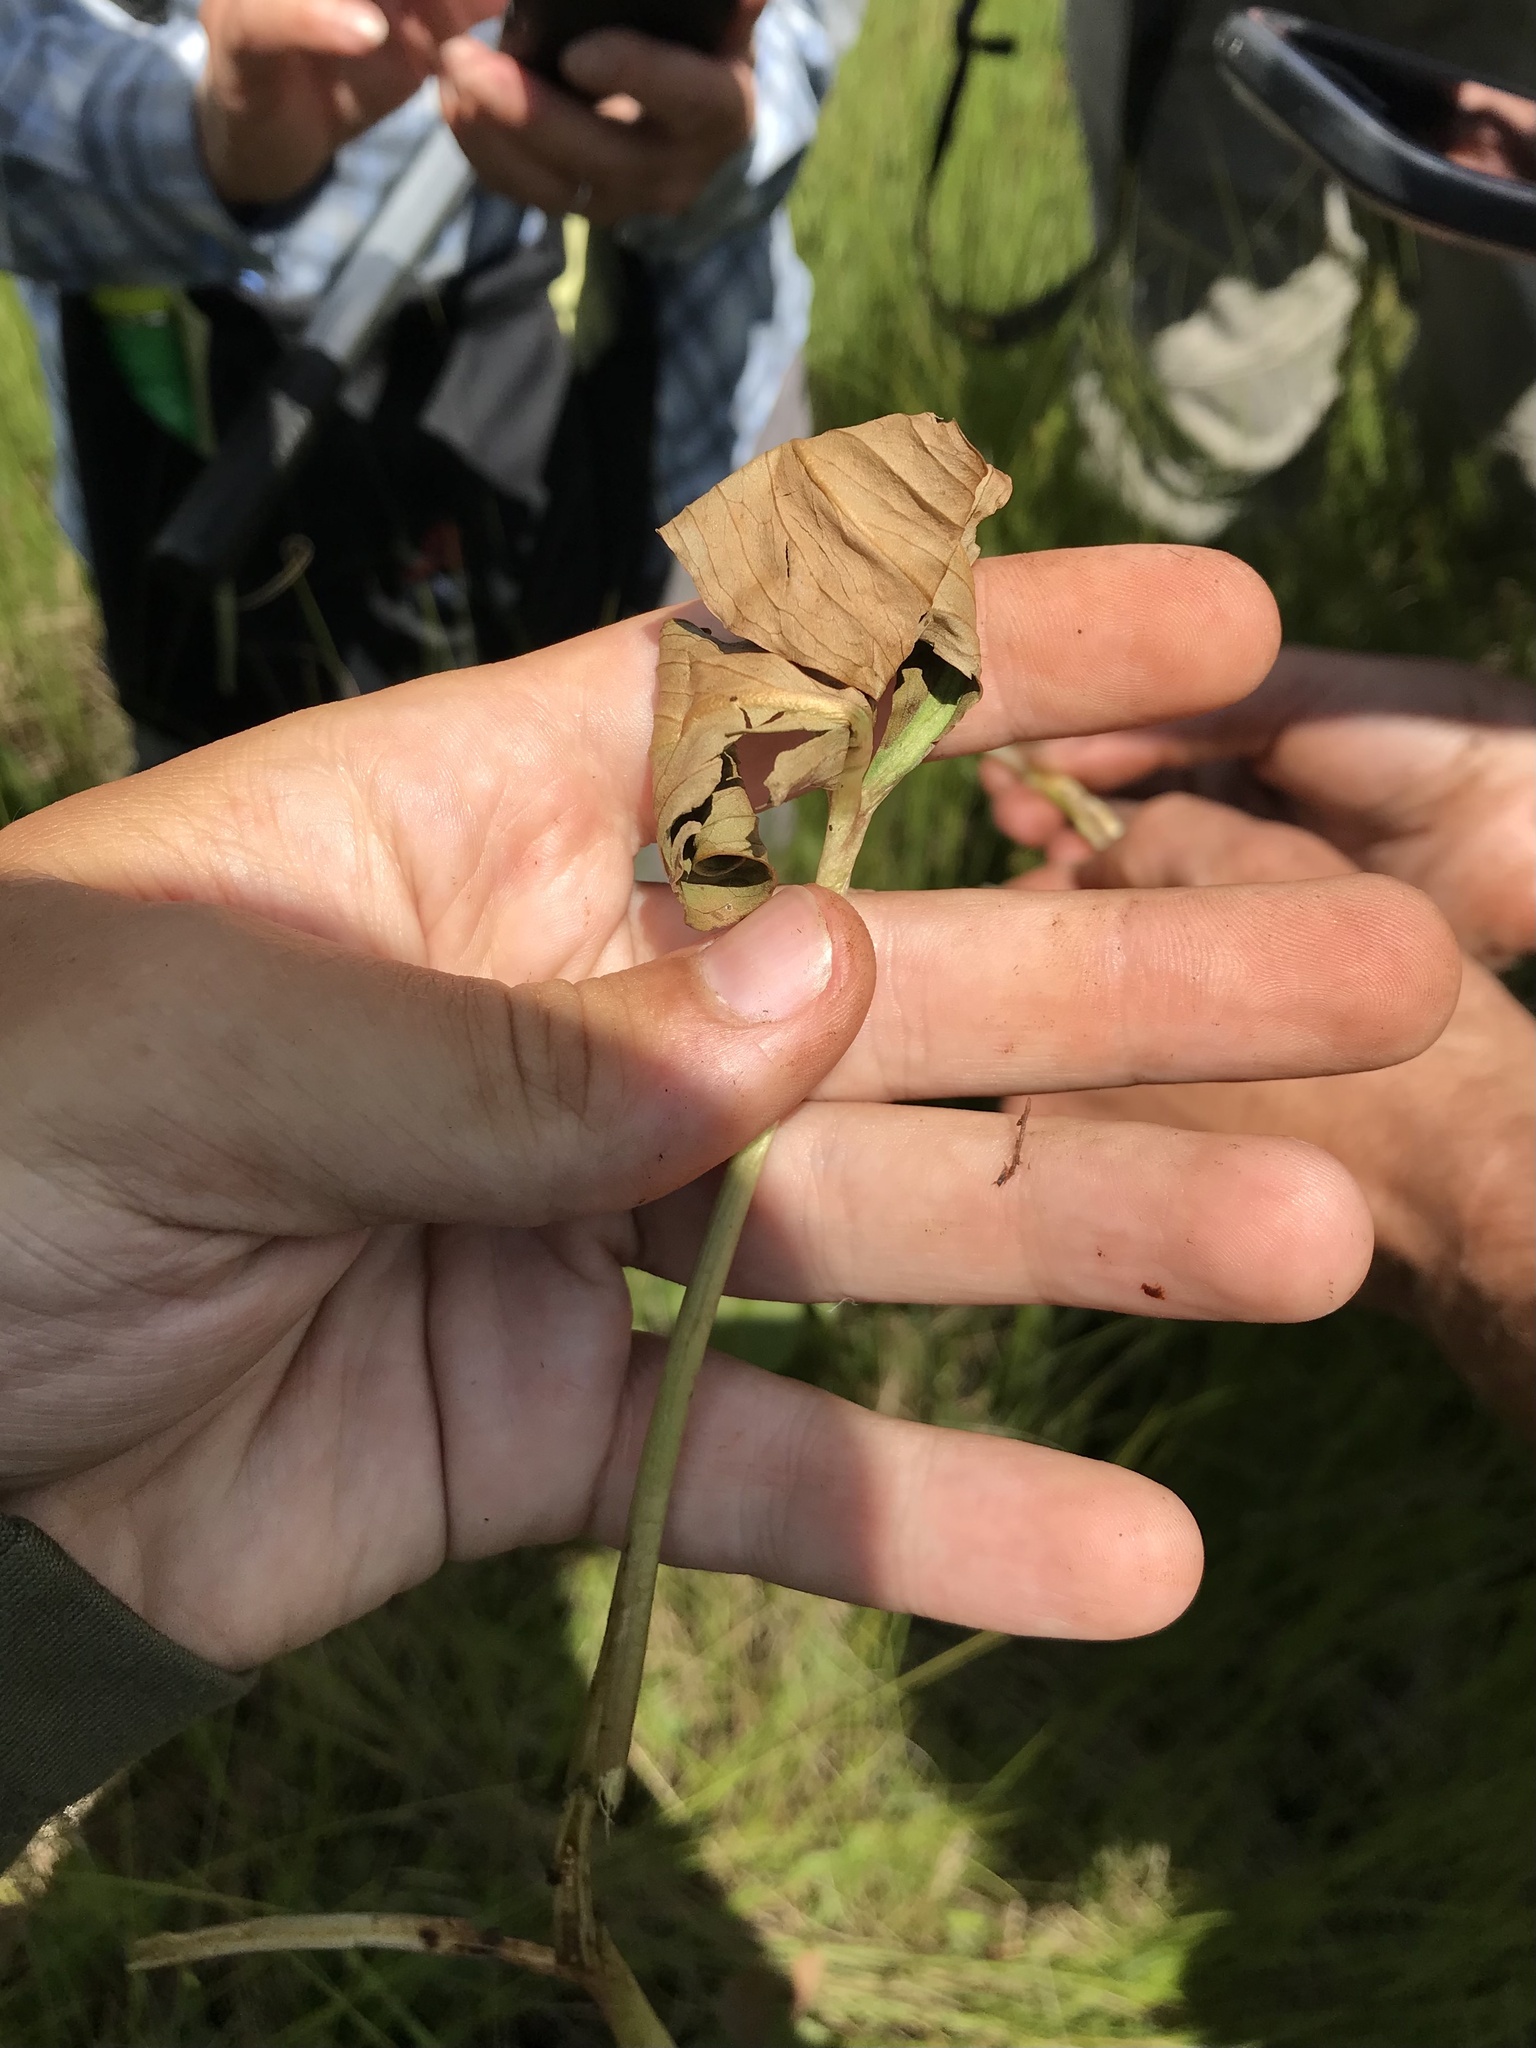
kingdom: Animalia
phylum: Arthropoda
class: Insecta
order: Lepidoptera
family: Noctuidae
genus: Papaipema
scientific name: Papaipema aweme
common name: Aweme borer moth
